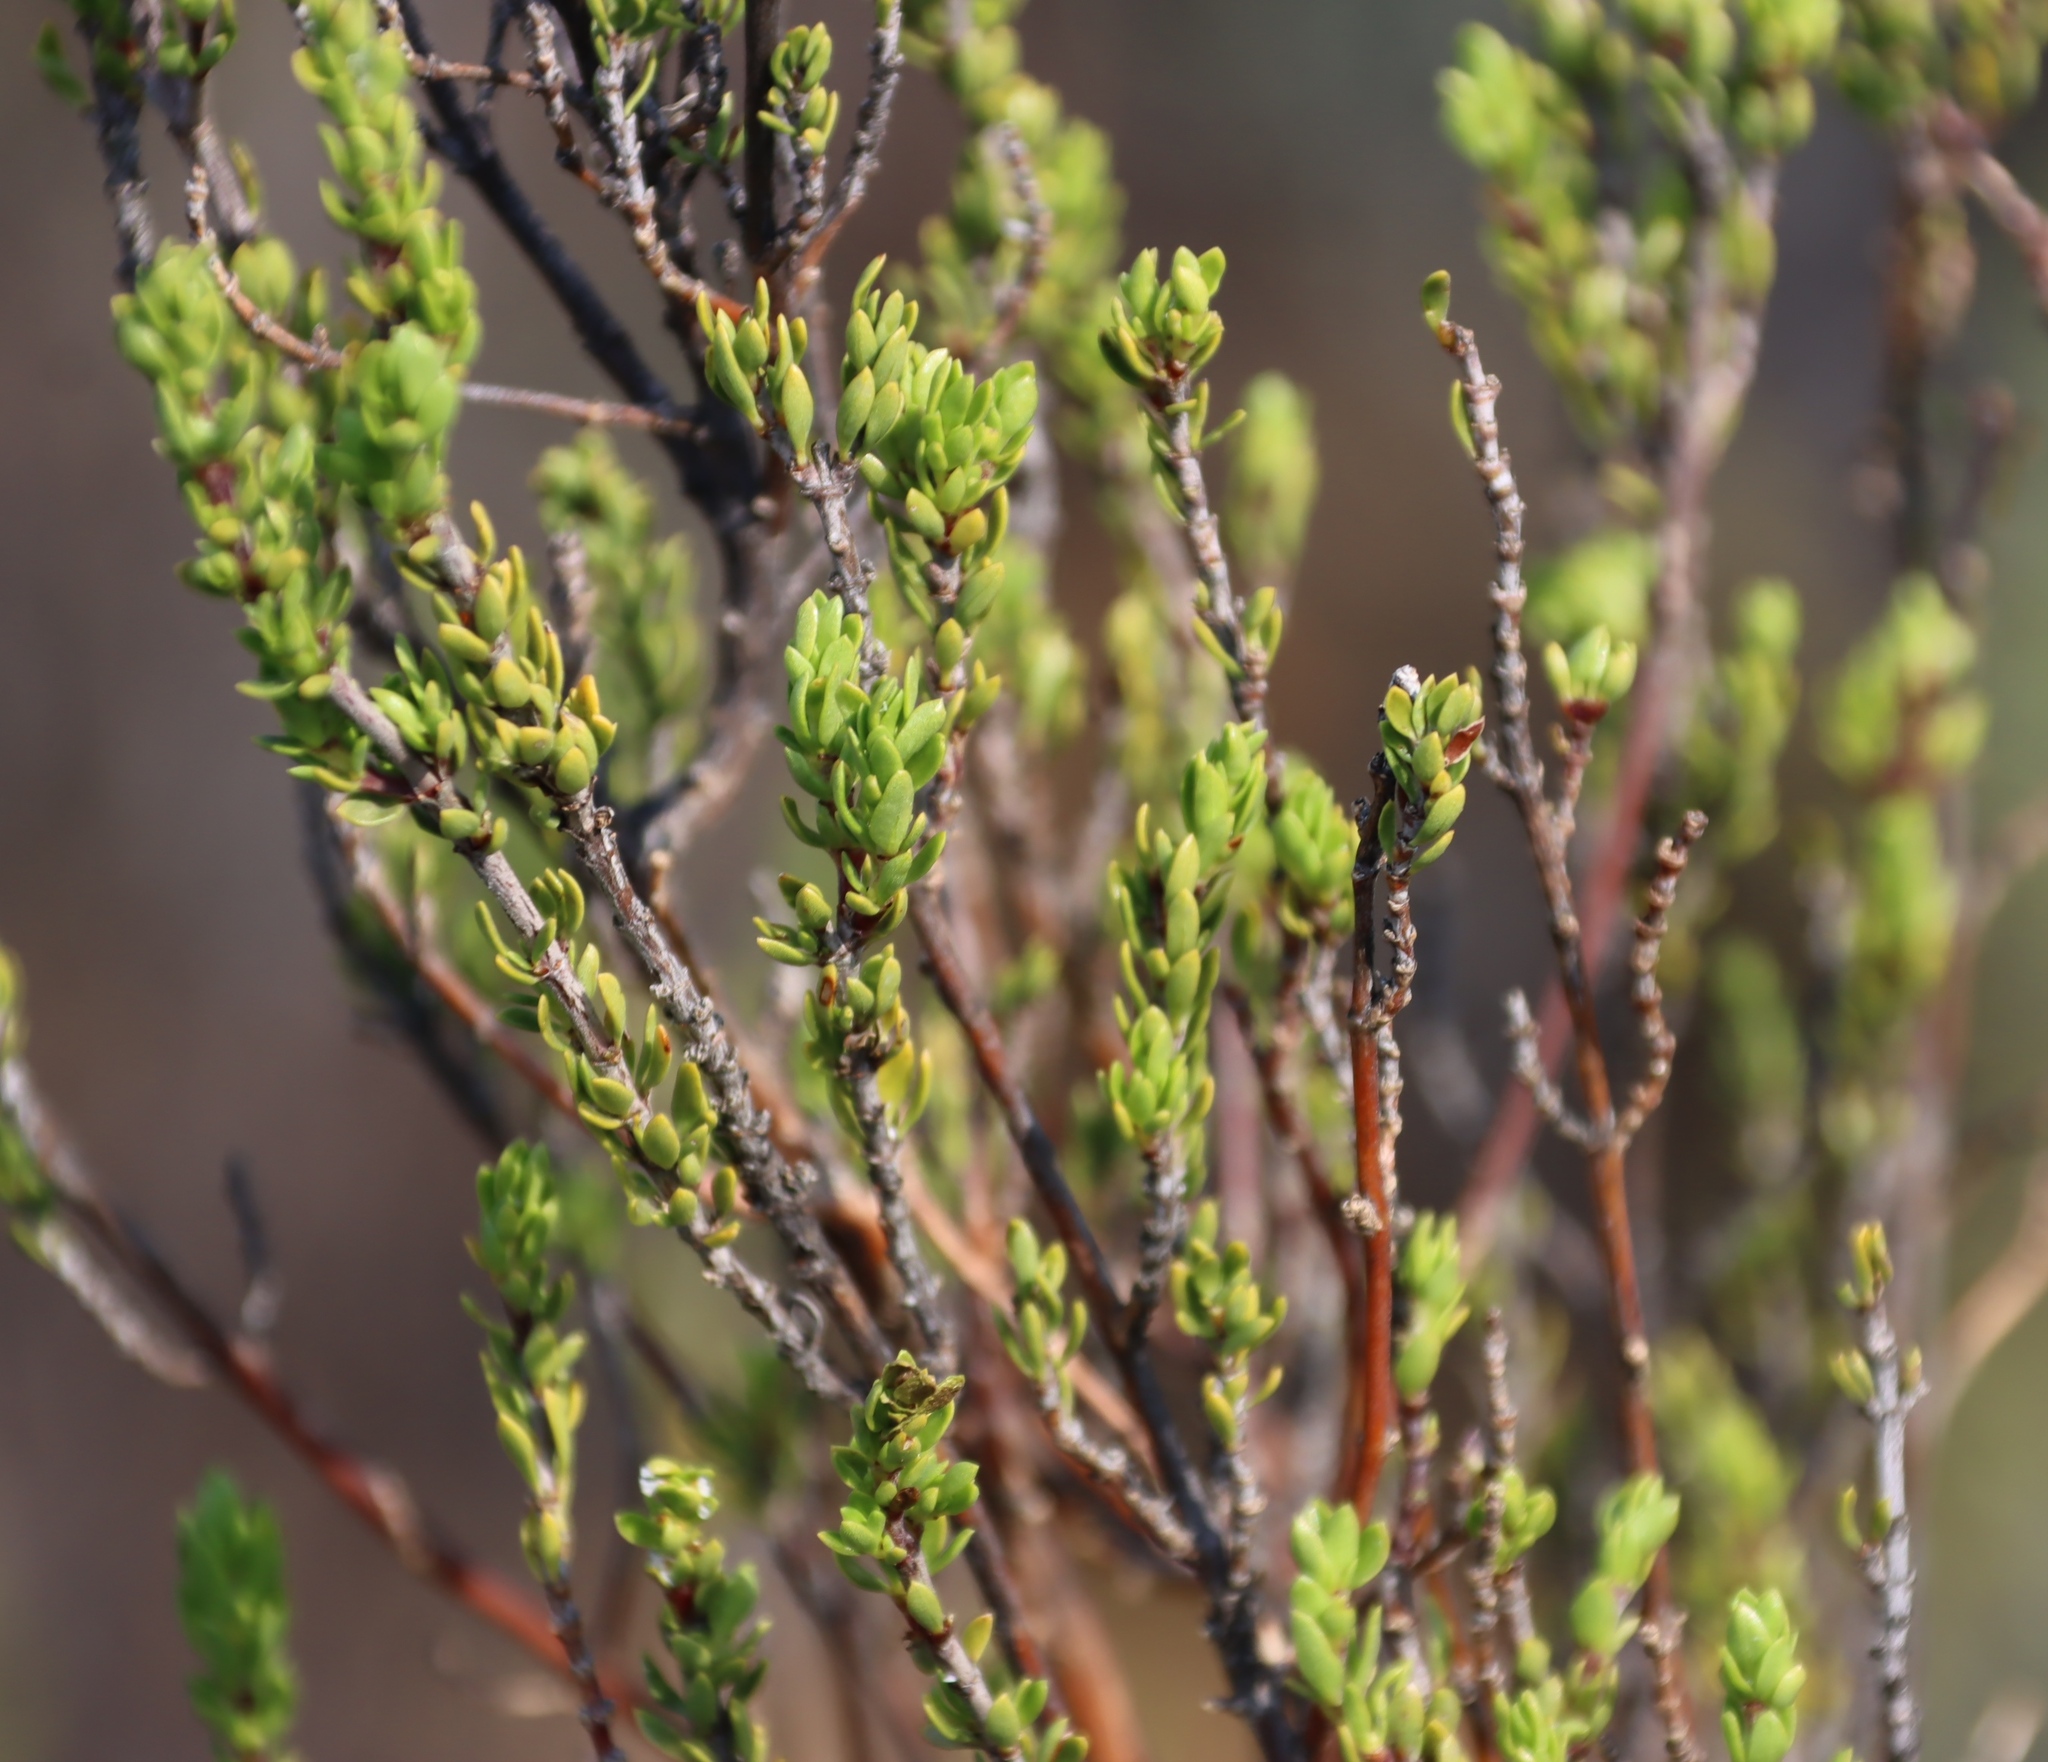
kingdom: Plantae
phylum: Tracheophyta
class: Magnoliopsida
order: Gentianales
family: Rubiaceae
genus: Anthospermum
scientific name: Anthospermum spathulatum
